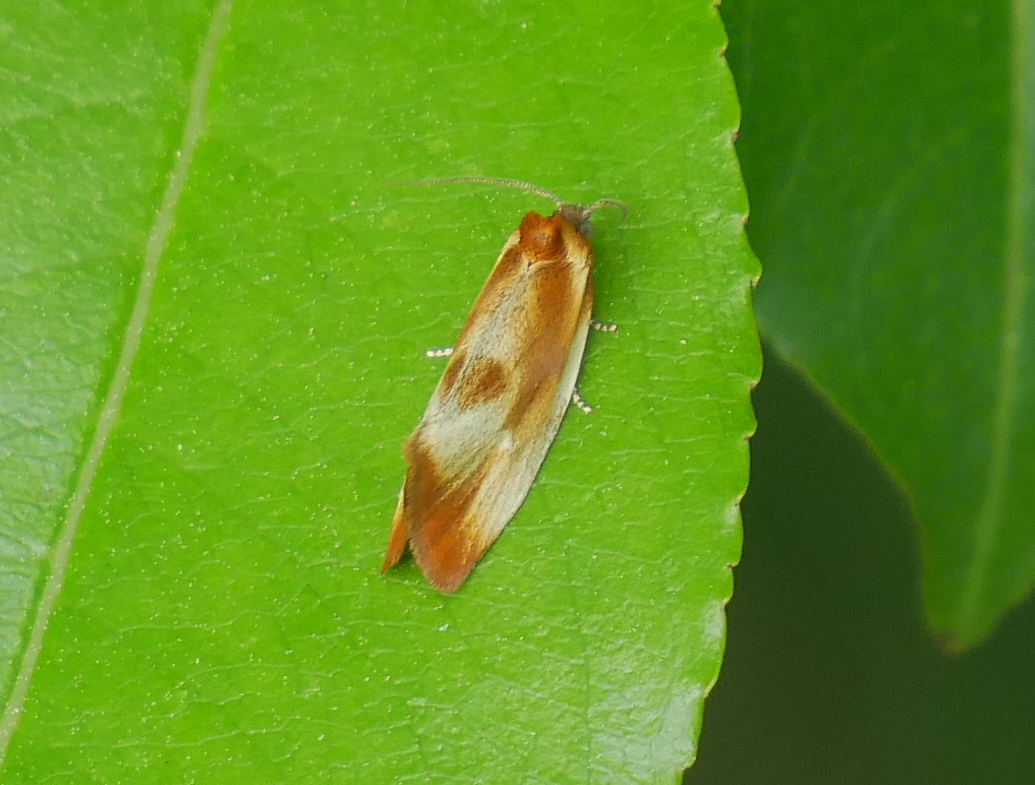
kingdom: Animalia
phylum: Arthropoda
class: Insecta
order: Lepidoptera
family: Tortricidae
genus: Eulia
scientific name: Eulia ministrana
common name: Brassy twist
